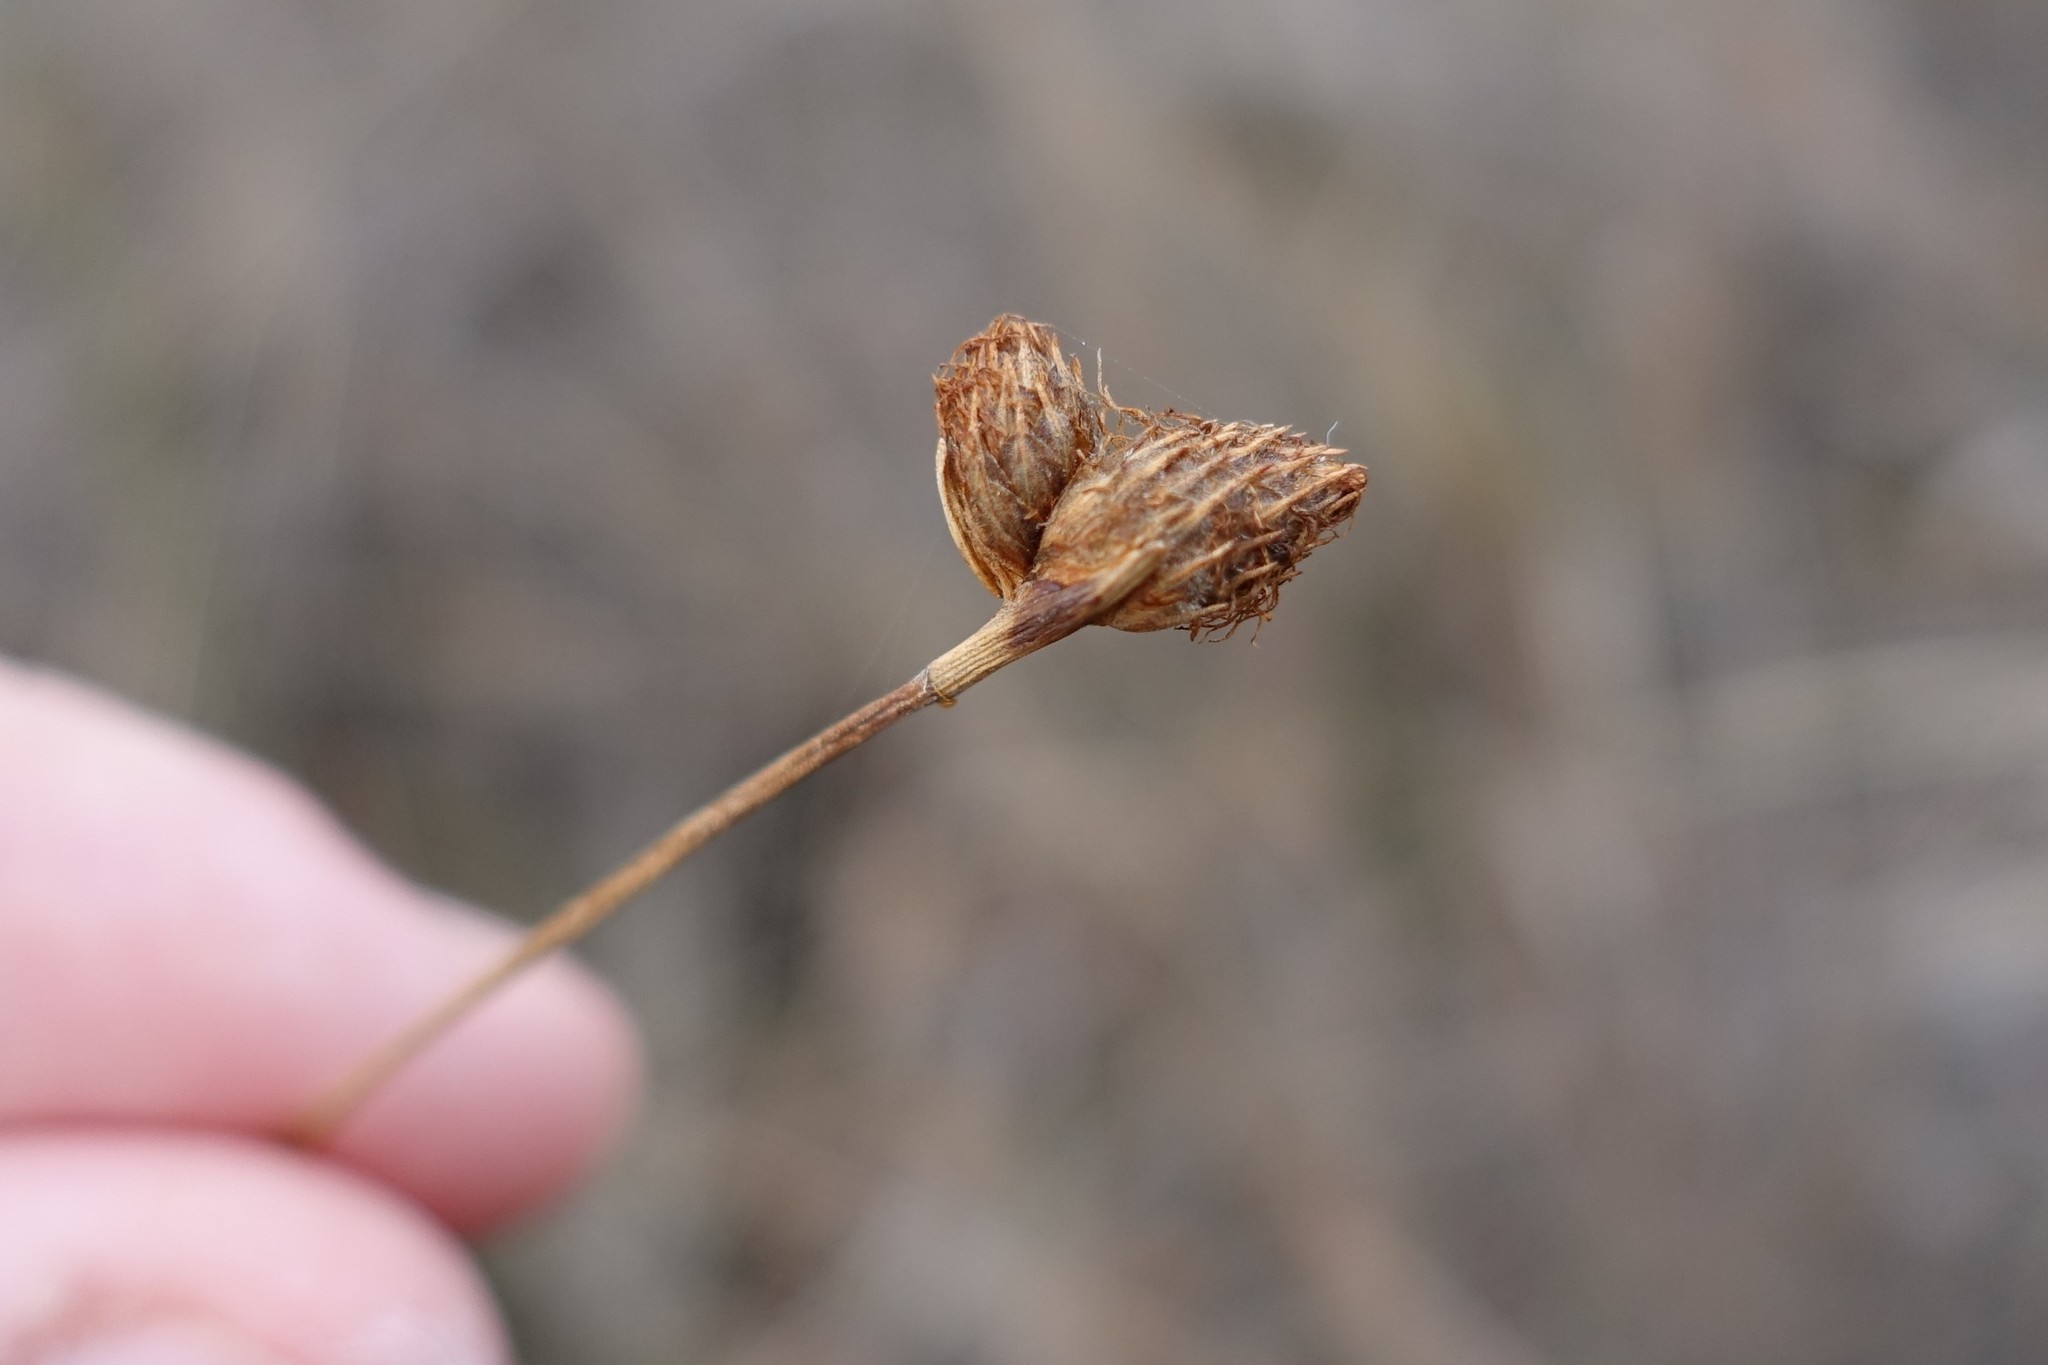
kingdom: Plantae
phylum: Tracheophyta
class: Liliopsida
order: Poales
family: Cyperaceae
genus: Fuirena
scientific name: Fuirena scirpoidea
